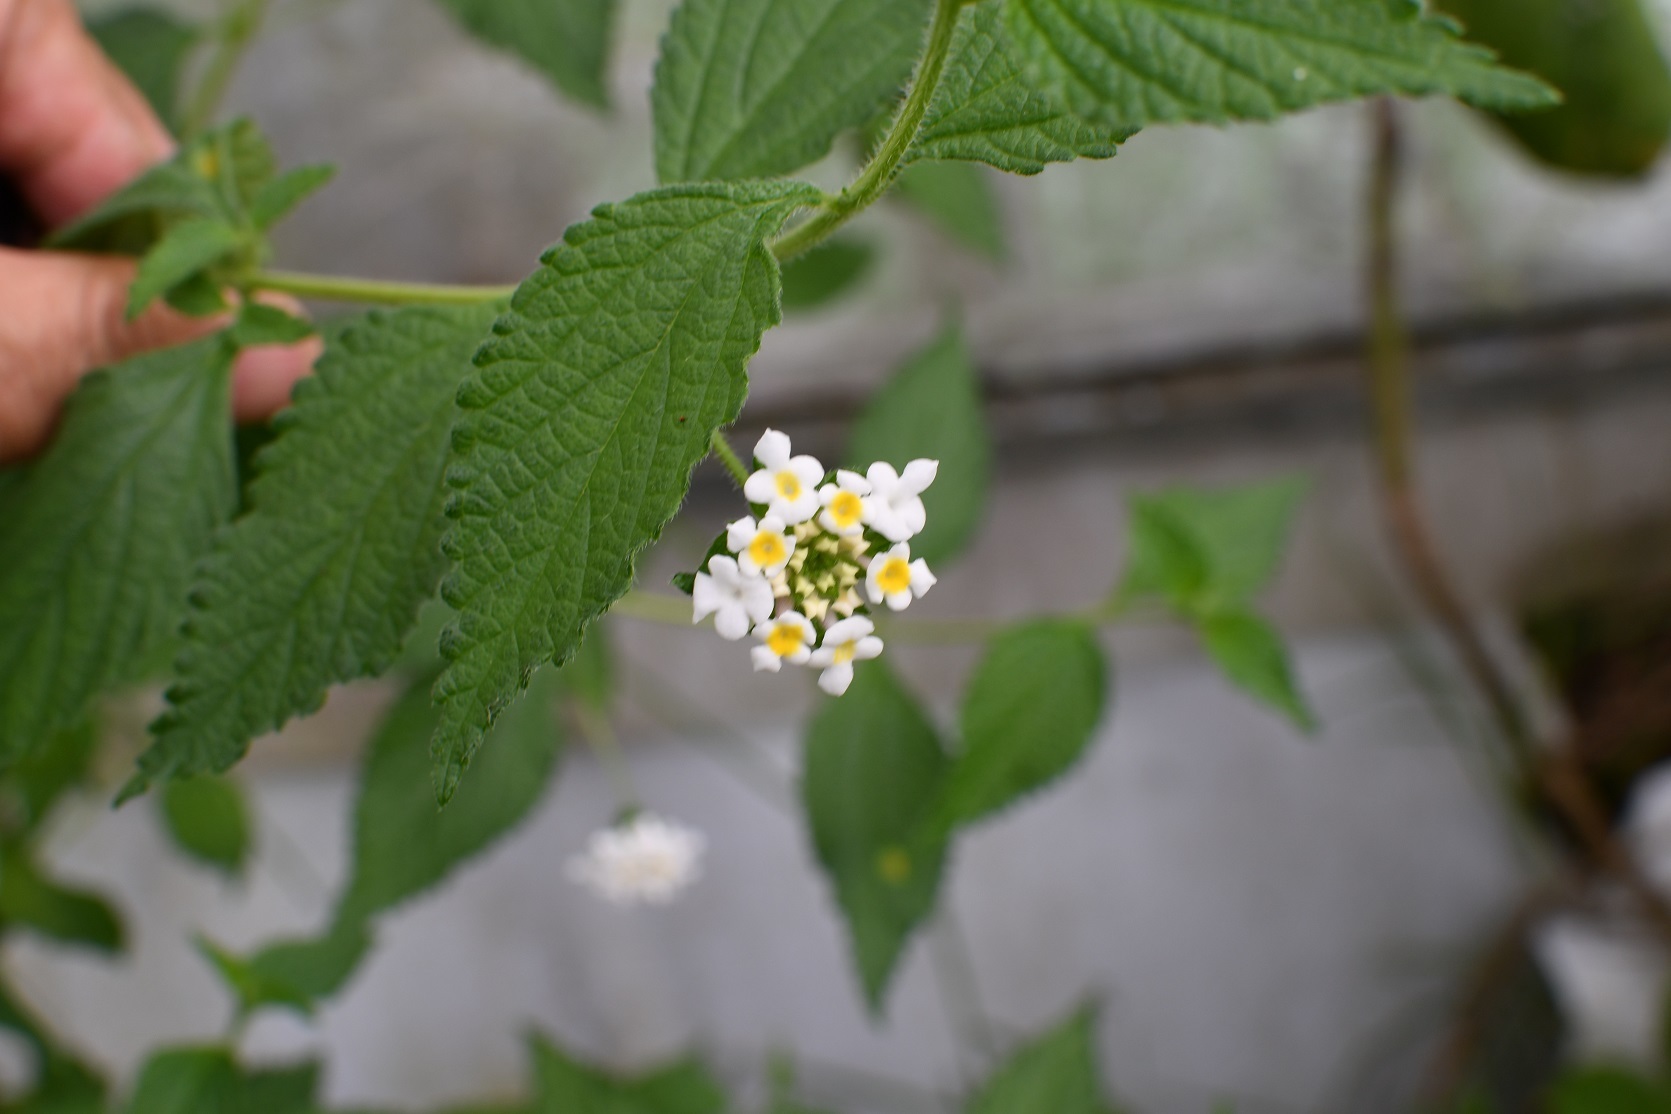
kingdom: Plantae
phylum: Tracheophyta
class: Magnoliopsida
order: Lamiales
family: Verbenaceae
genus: Lantana
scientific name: Lantana hirta
